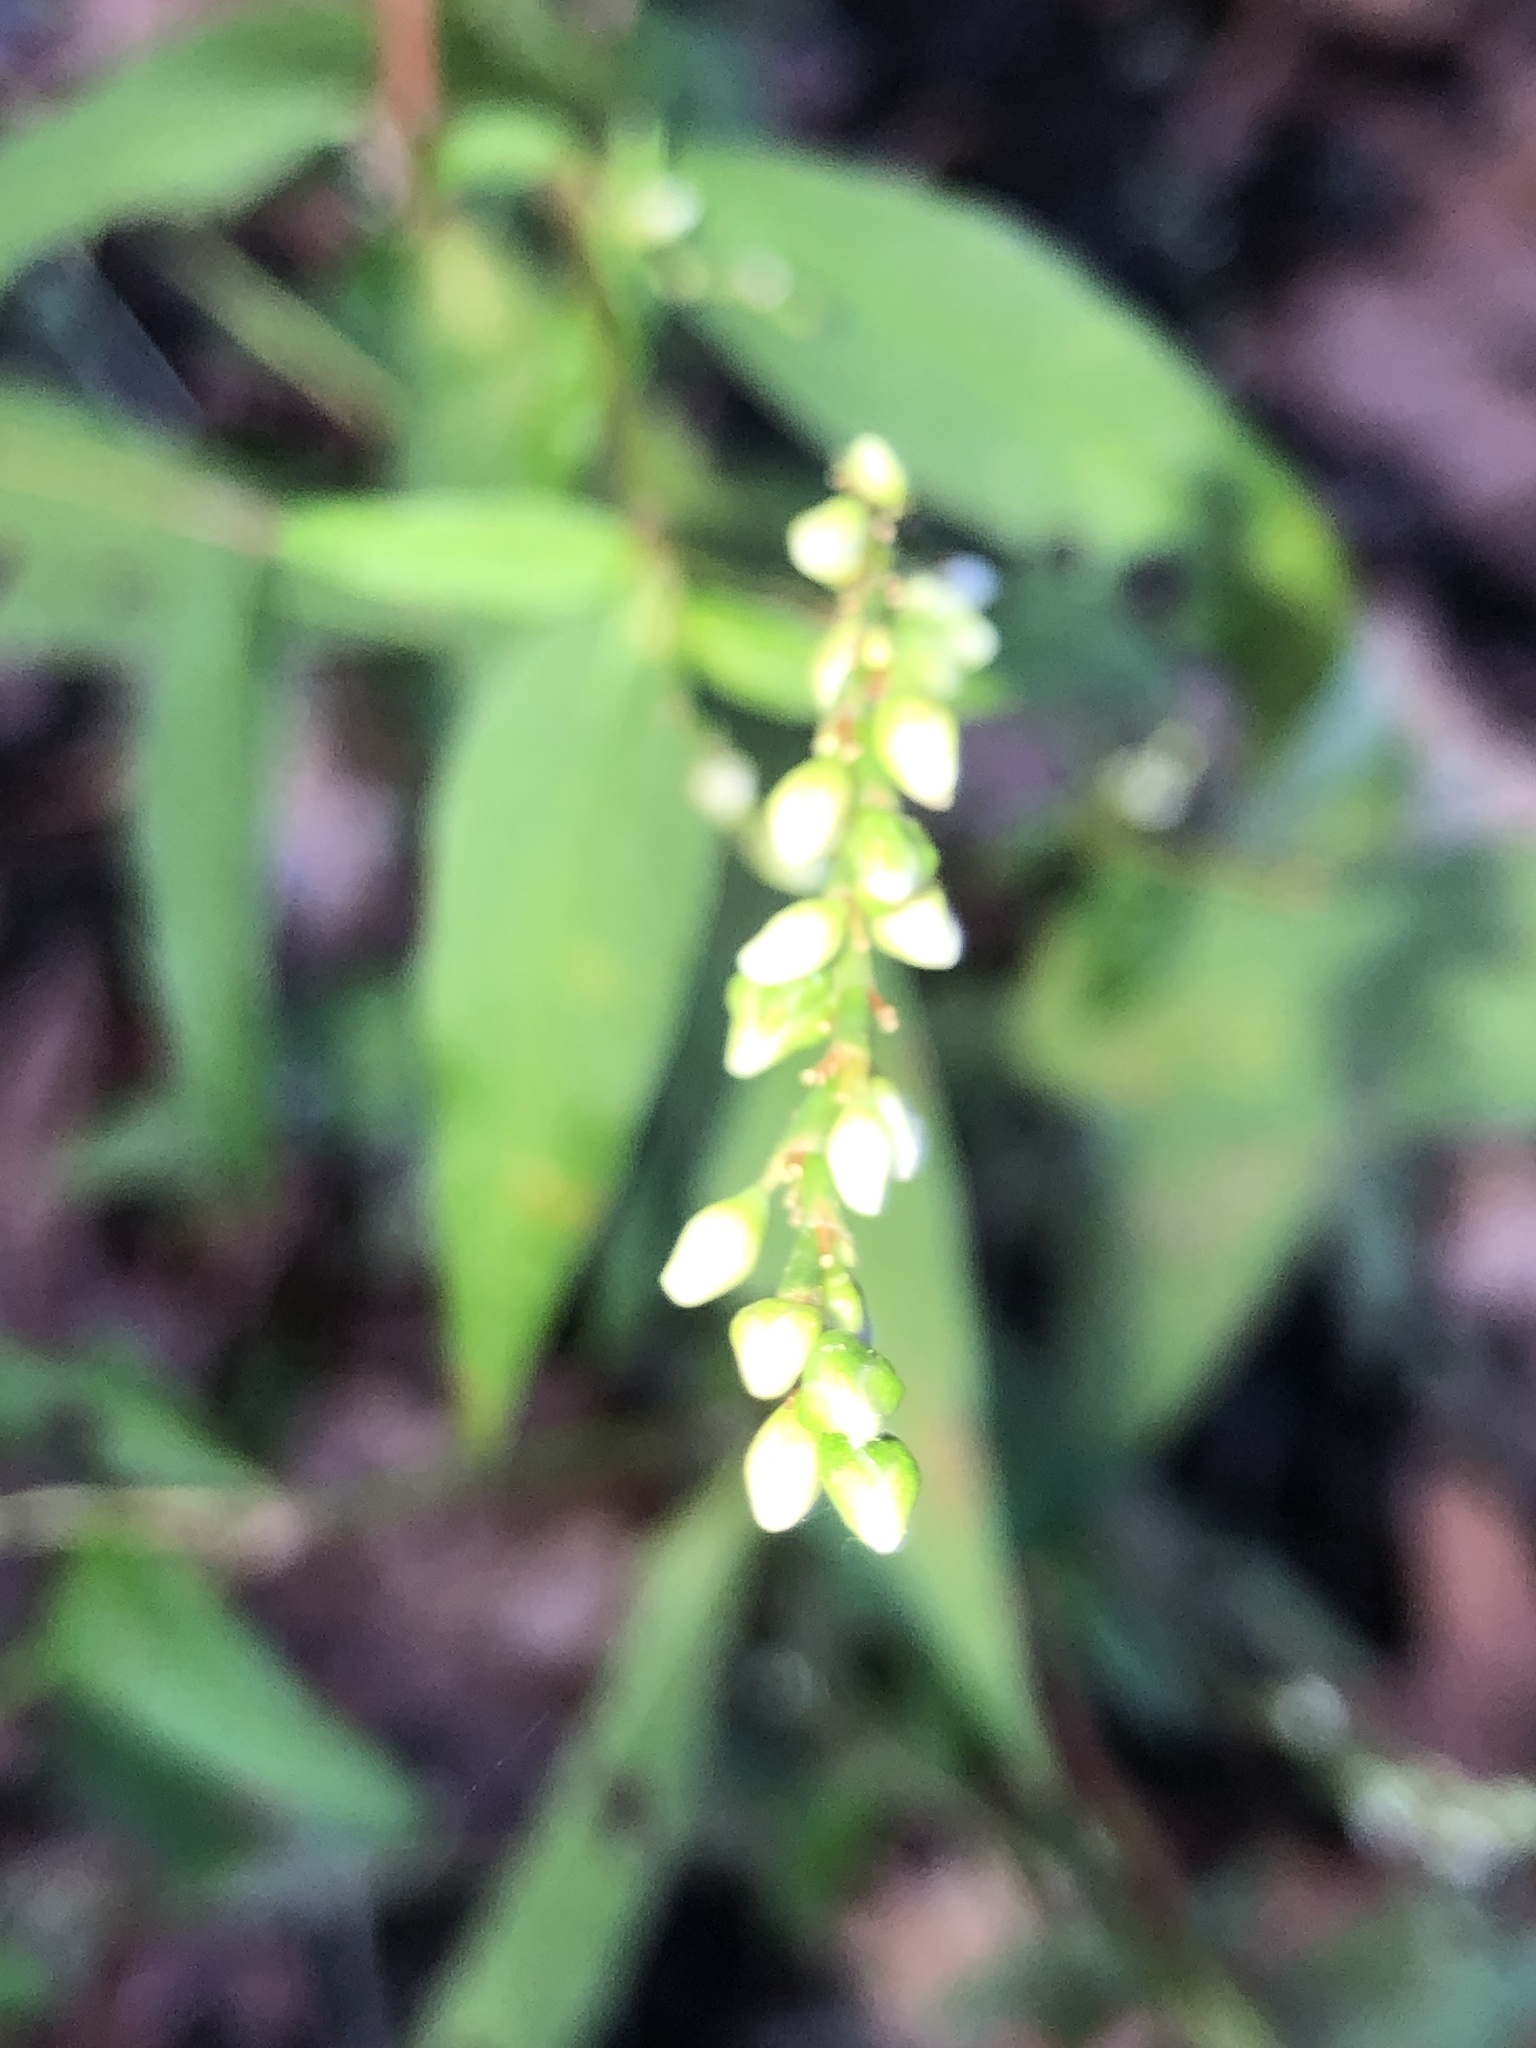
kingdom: Plantae
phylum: Tracheophyta
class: Magnoliopsida
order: Caryophyllales
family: Polygonaceae
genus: Persicaria
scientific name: Persicaria punctata
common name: Dotted smartweed
